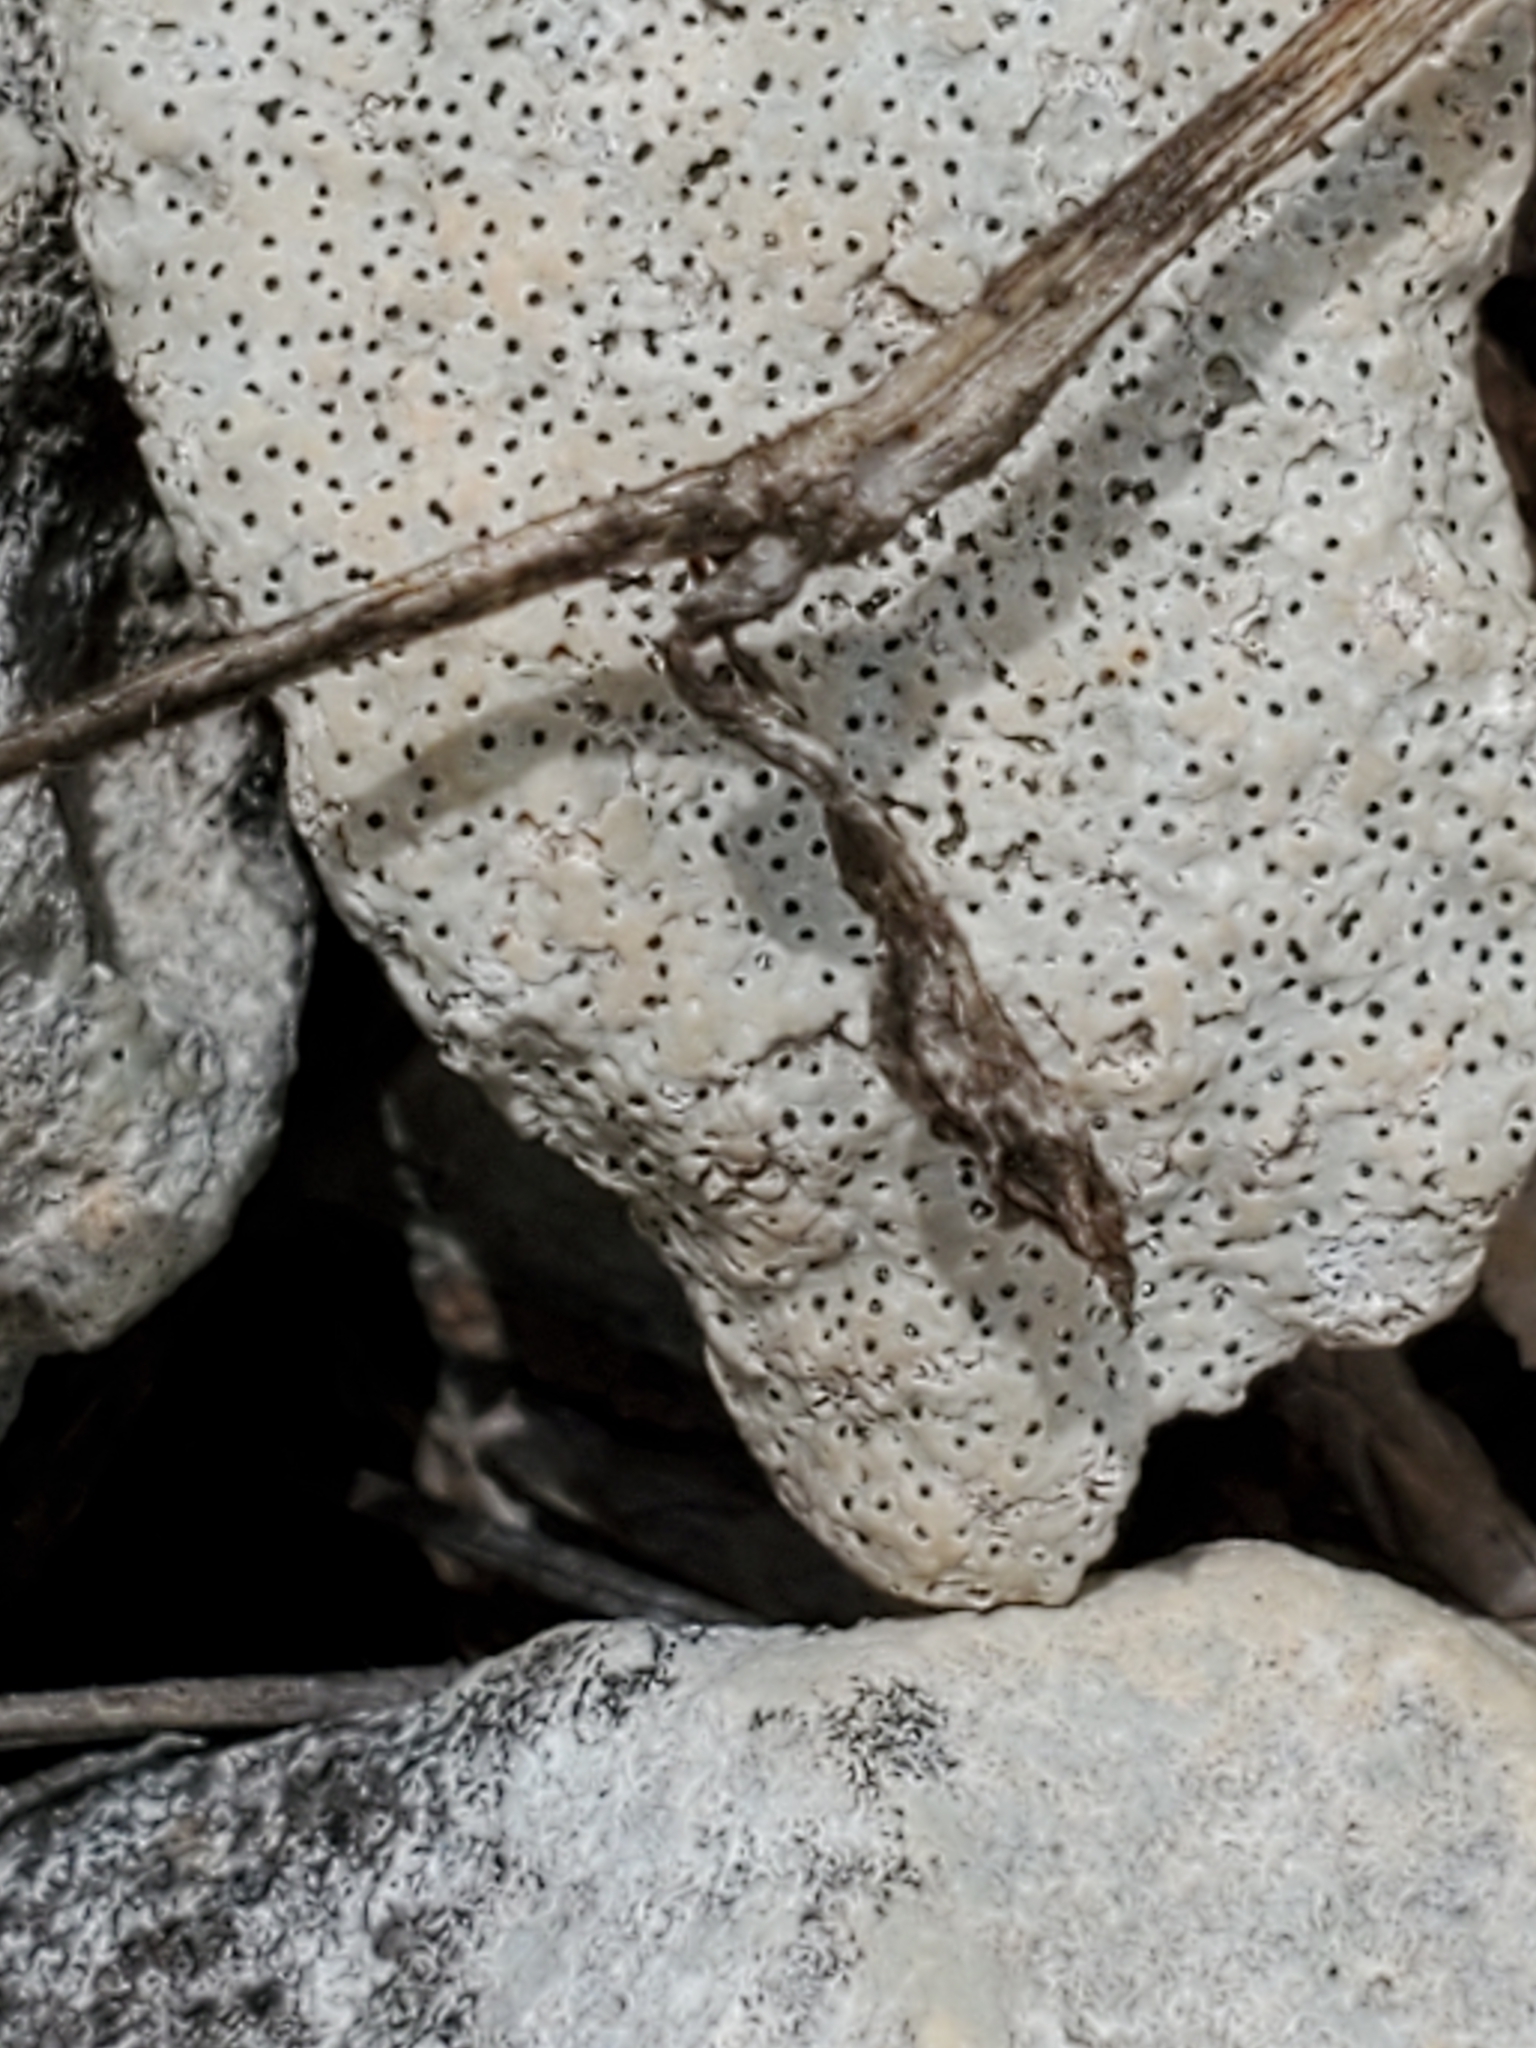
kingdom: Plantae
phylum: Tracheophyta
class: Magnoliopsida
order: Ranunculales
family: Ranunculaceae
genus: Anemone
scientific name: Anemone edwardsiana
